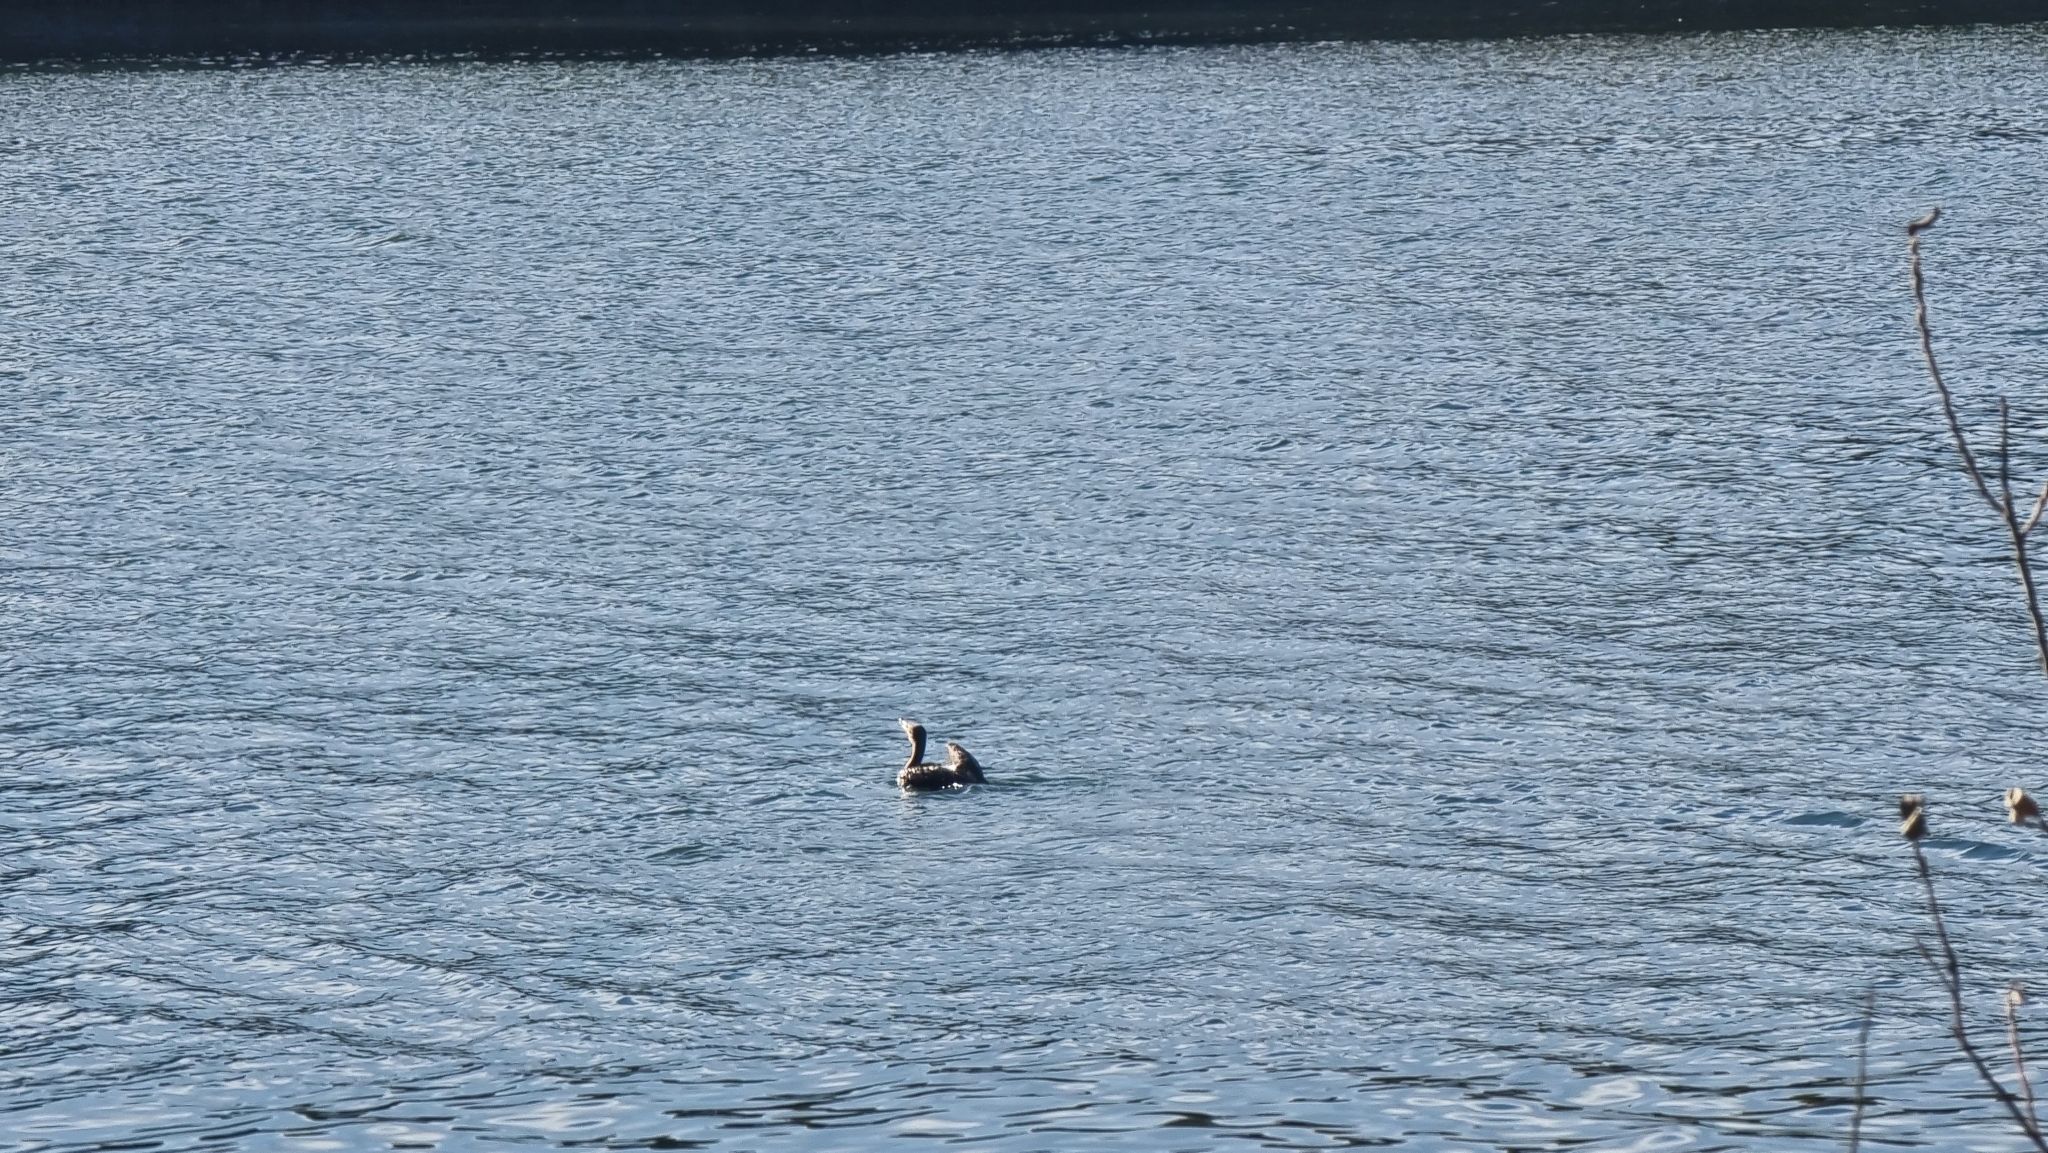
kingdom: Animalia
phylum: Chordata
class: Aves
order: Suliformes
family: Phalacrocoracidae
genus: Phalacrocorax
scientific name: Phalacrocorax carbo
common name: Great cormorant
